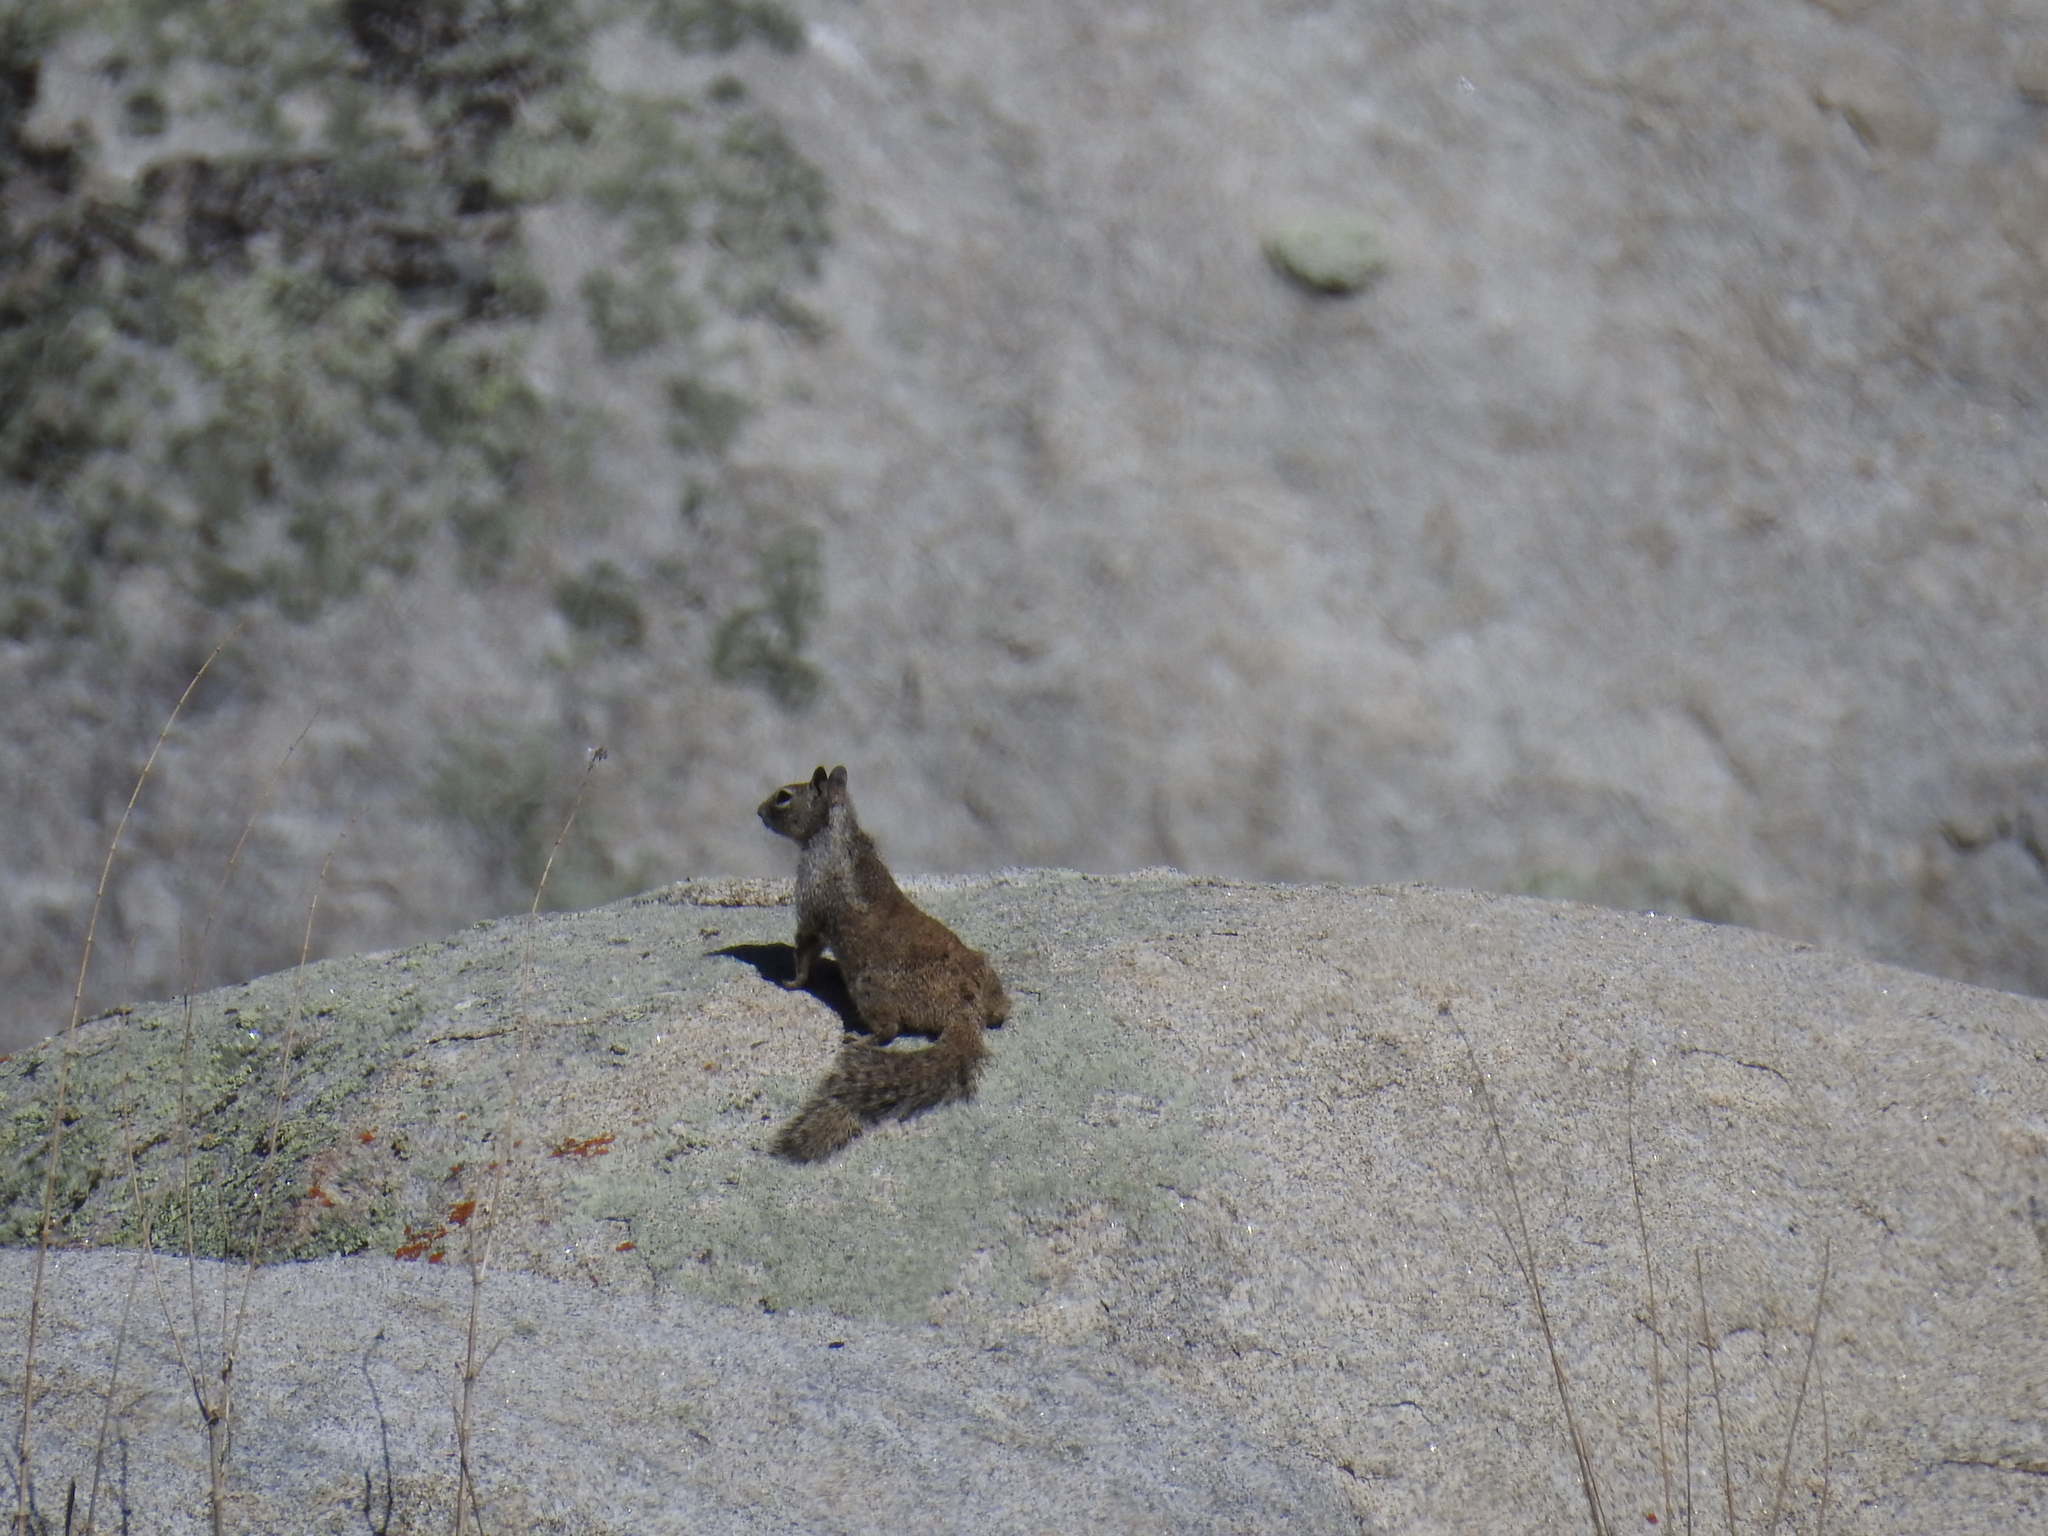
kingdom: Animalia
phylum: Chordata
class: Mammalia
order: Rodentia
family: Sciuridae
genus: Otospermophilus
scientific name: Otospermophilus beecheyi
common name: California ground squirrel
